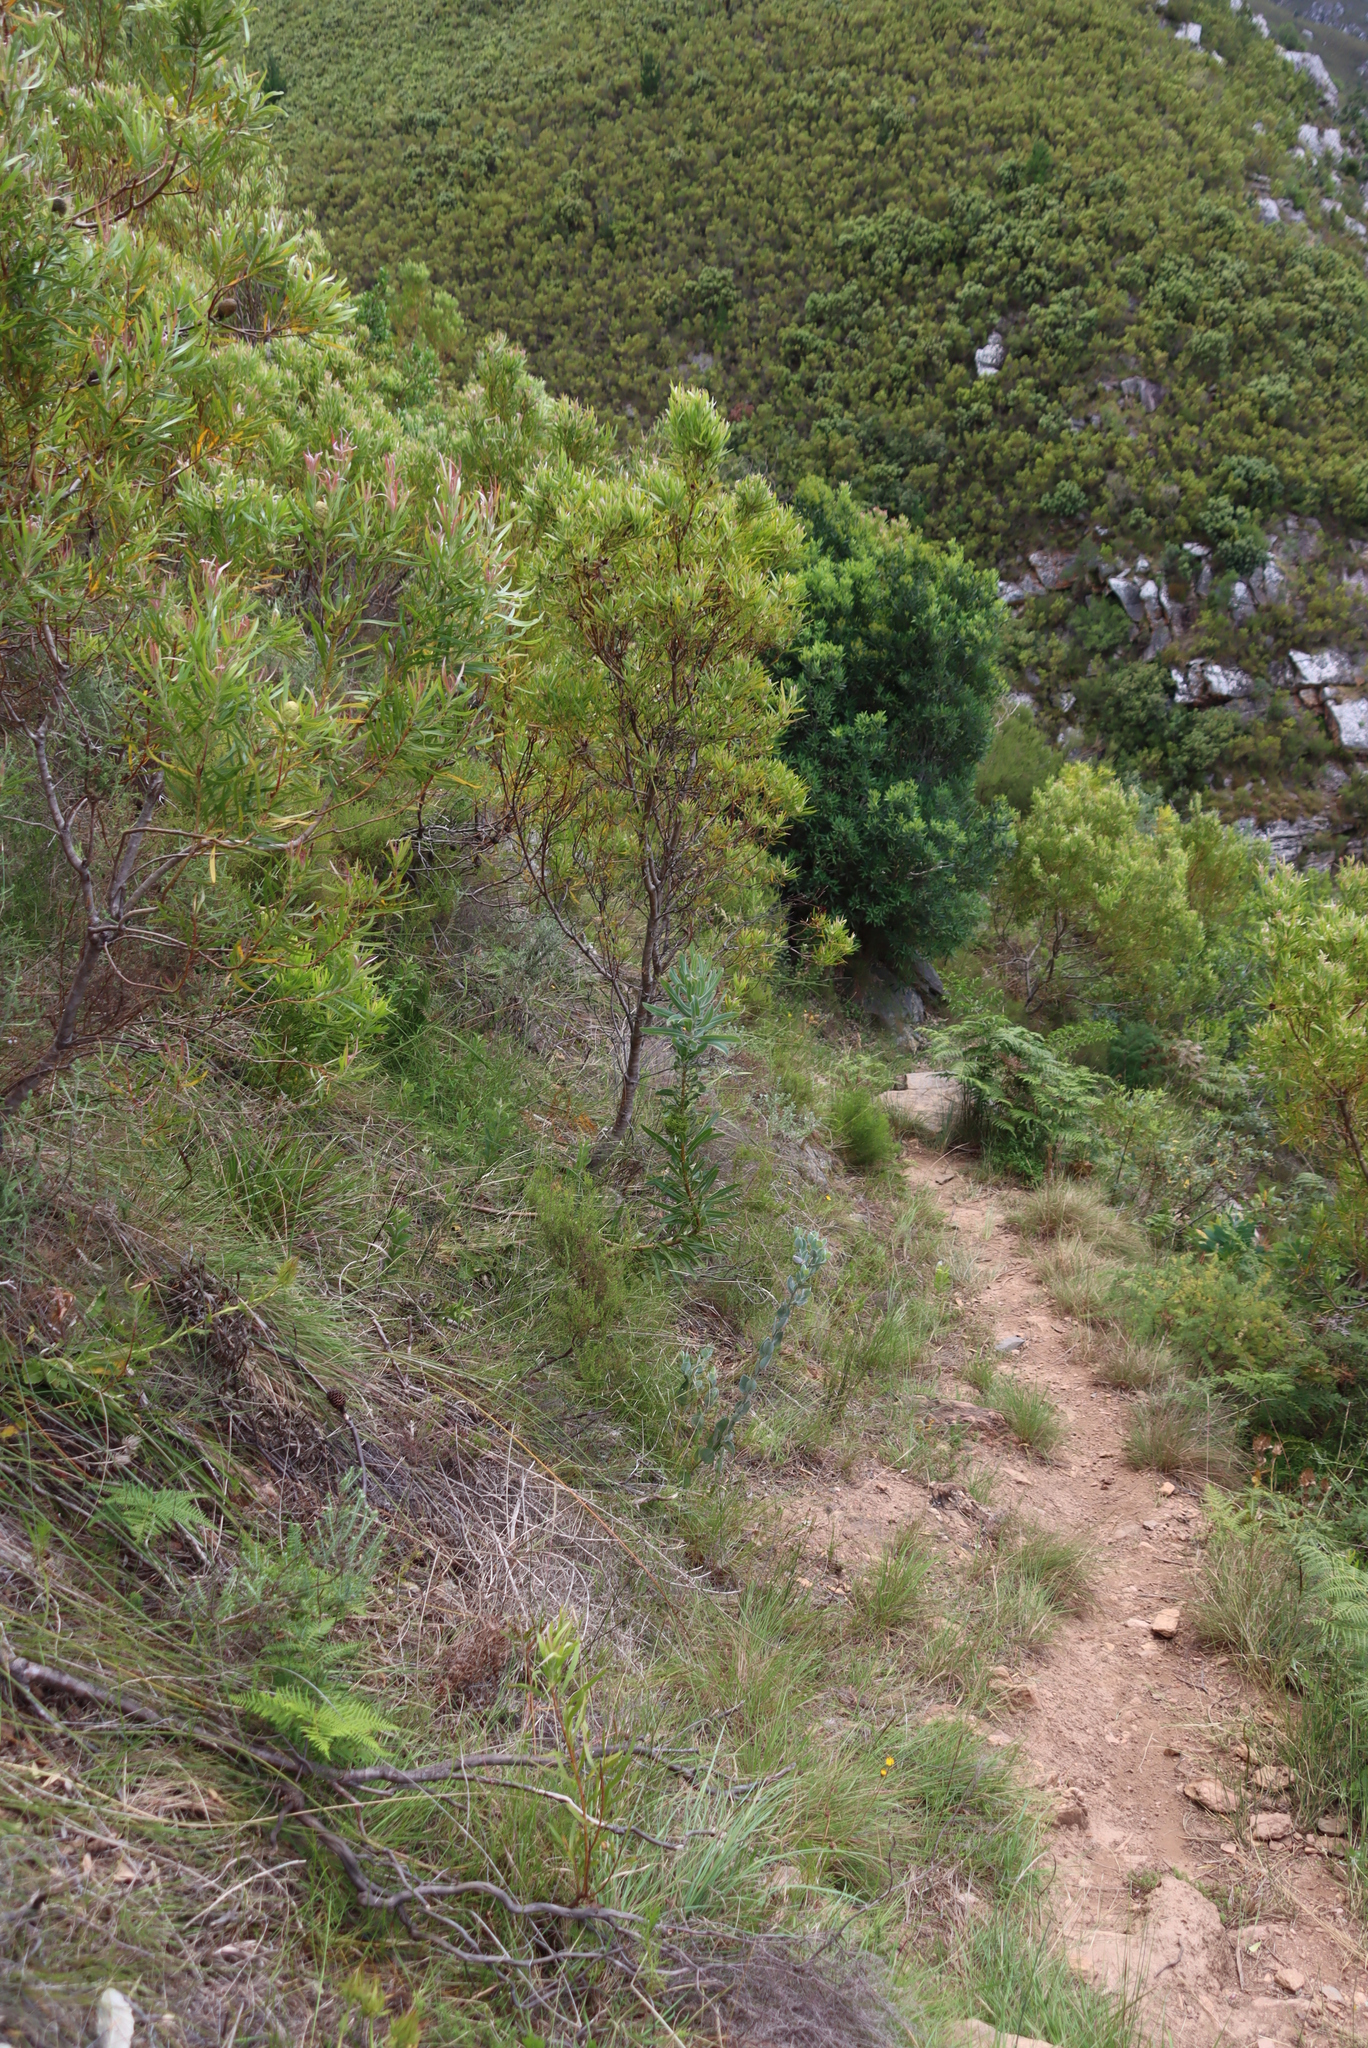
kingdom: Plantae
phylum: Tracheophyta
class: Magnoliopsida
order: Proteales
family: Proteaceae
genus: Leucadendron
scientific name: Leucadendron eucalyptifolium
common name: Gum-leaved conebush
